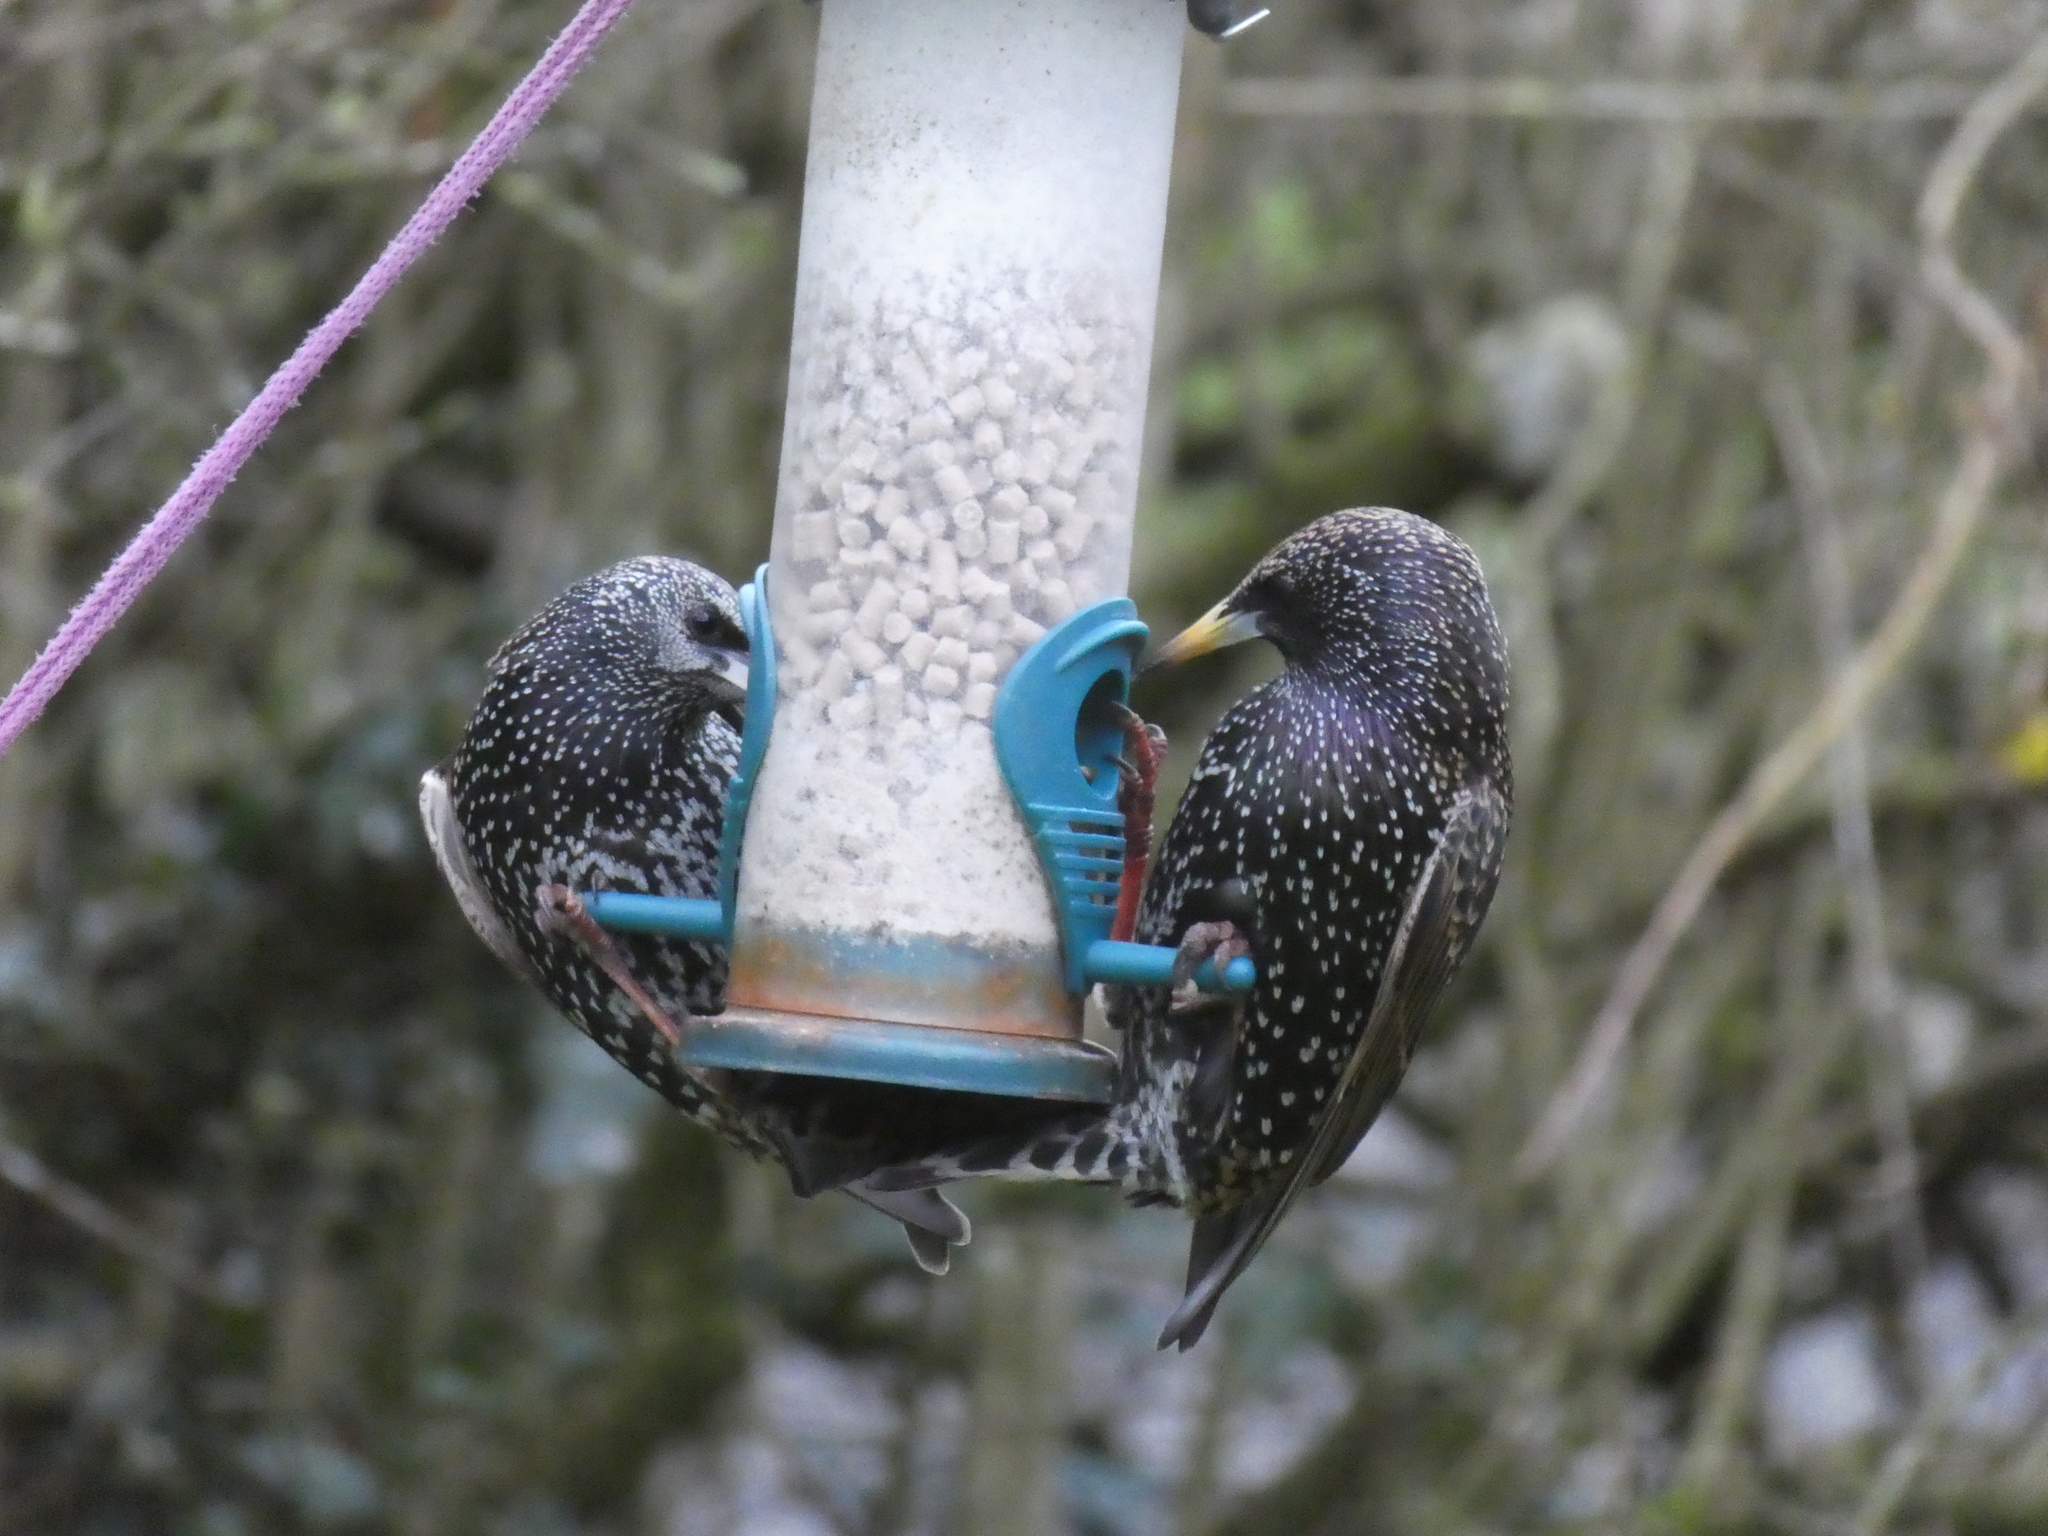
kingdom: Animalia
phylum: Chordata
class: Aves
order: Passeriformes
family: Sturnidae
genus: Sturnus
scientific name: Sturnus vulgaris
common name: Common starling
